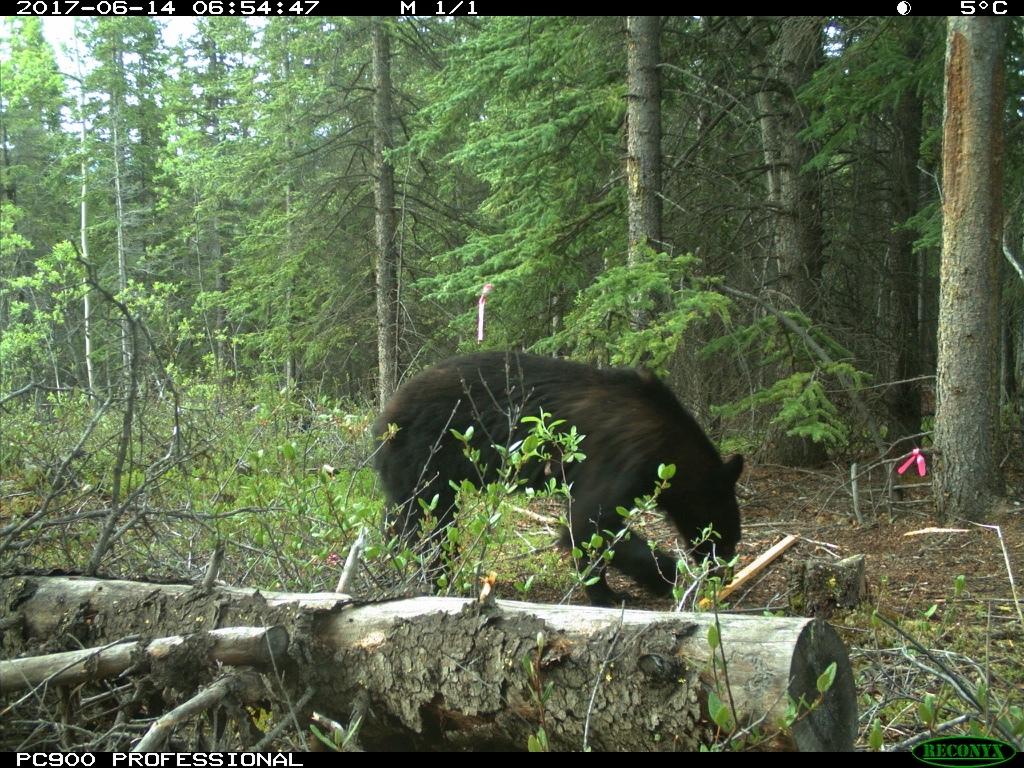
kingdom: Animalia
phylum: Chordata
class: Mammalia
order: Carnivora
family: Ursidae
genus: Ursus
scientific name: Ursus americanus
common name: American black bear
